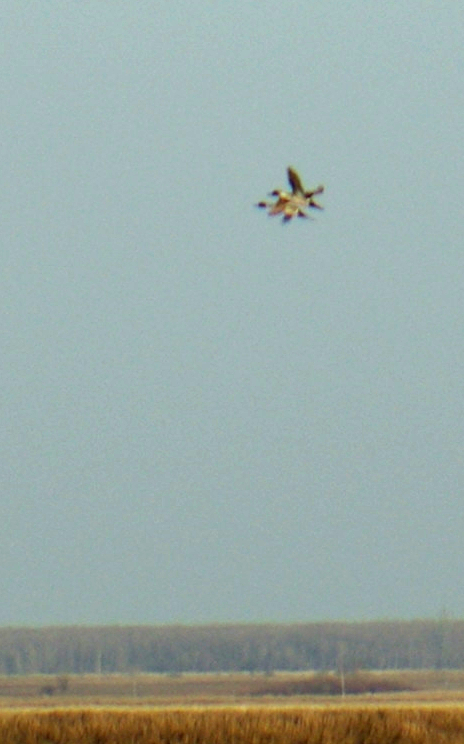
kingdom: Animalia
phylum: Chordata
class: Aves
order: Anseriformes
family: Anatidae
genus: Anas
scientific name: Anas acuta
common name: Northern pintail
